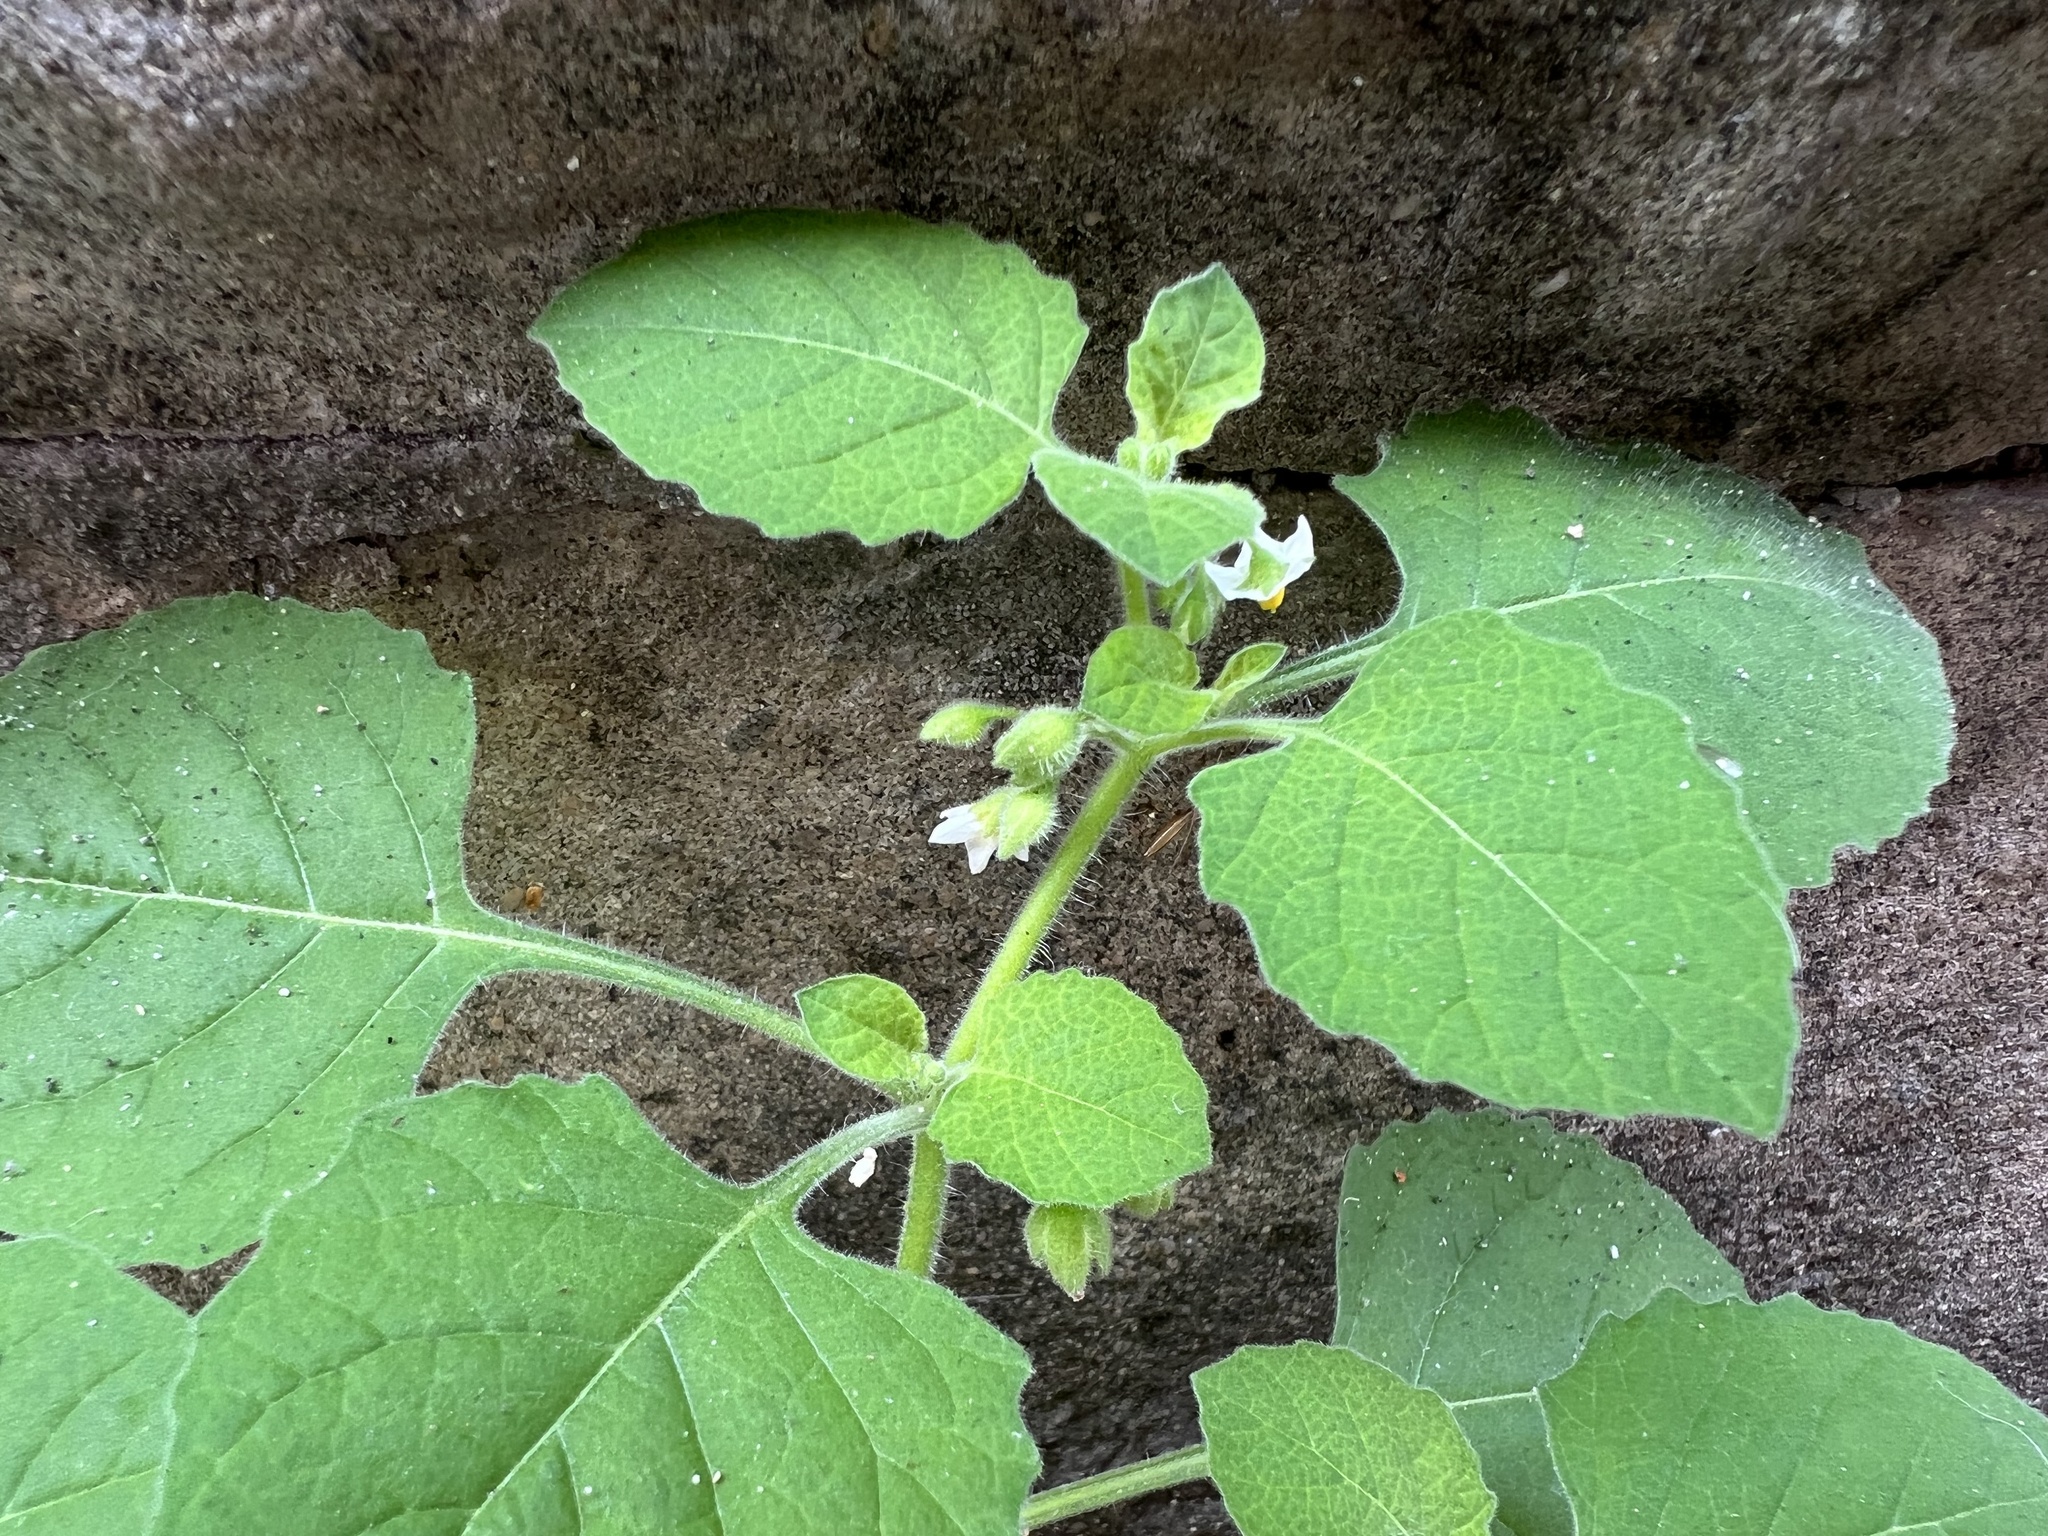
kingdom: Plantae
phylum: Tracheophyta
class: Magnoliopsida
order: Solanales
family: Solanaceae
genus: Solanum
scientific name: Solanum sarrachoides
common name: Leafy-fruited nightshade
